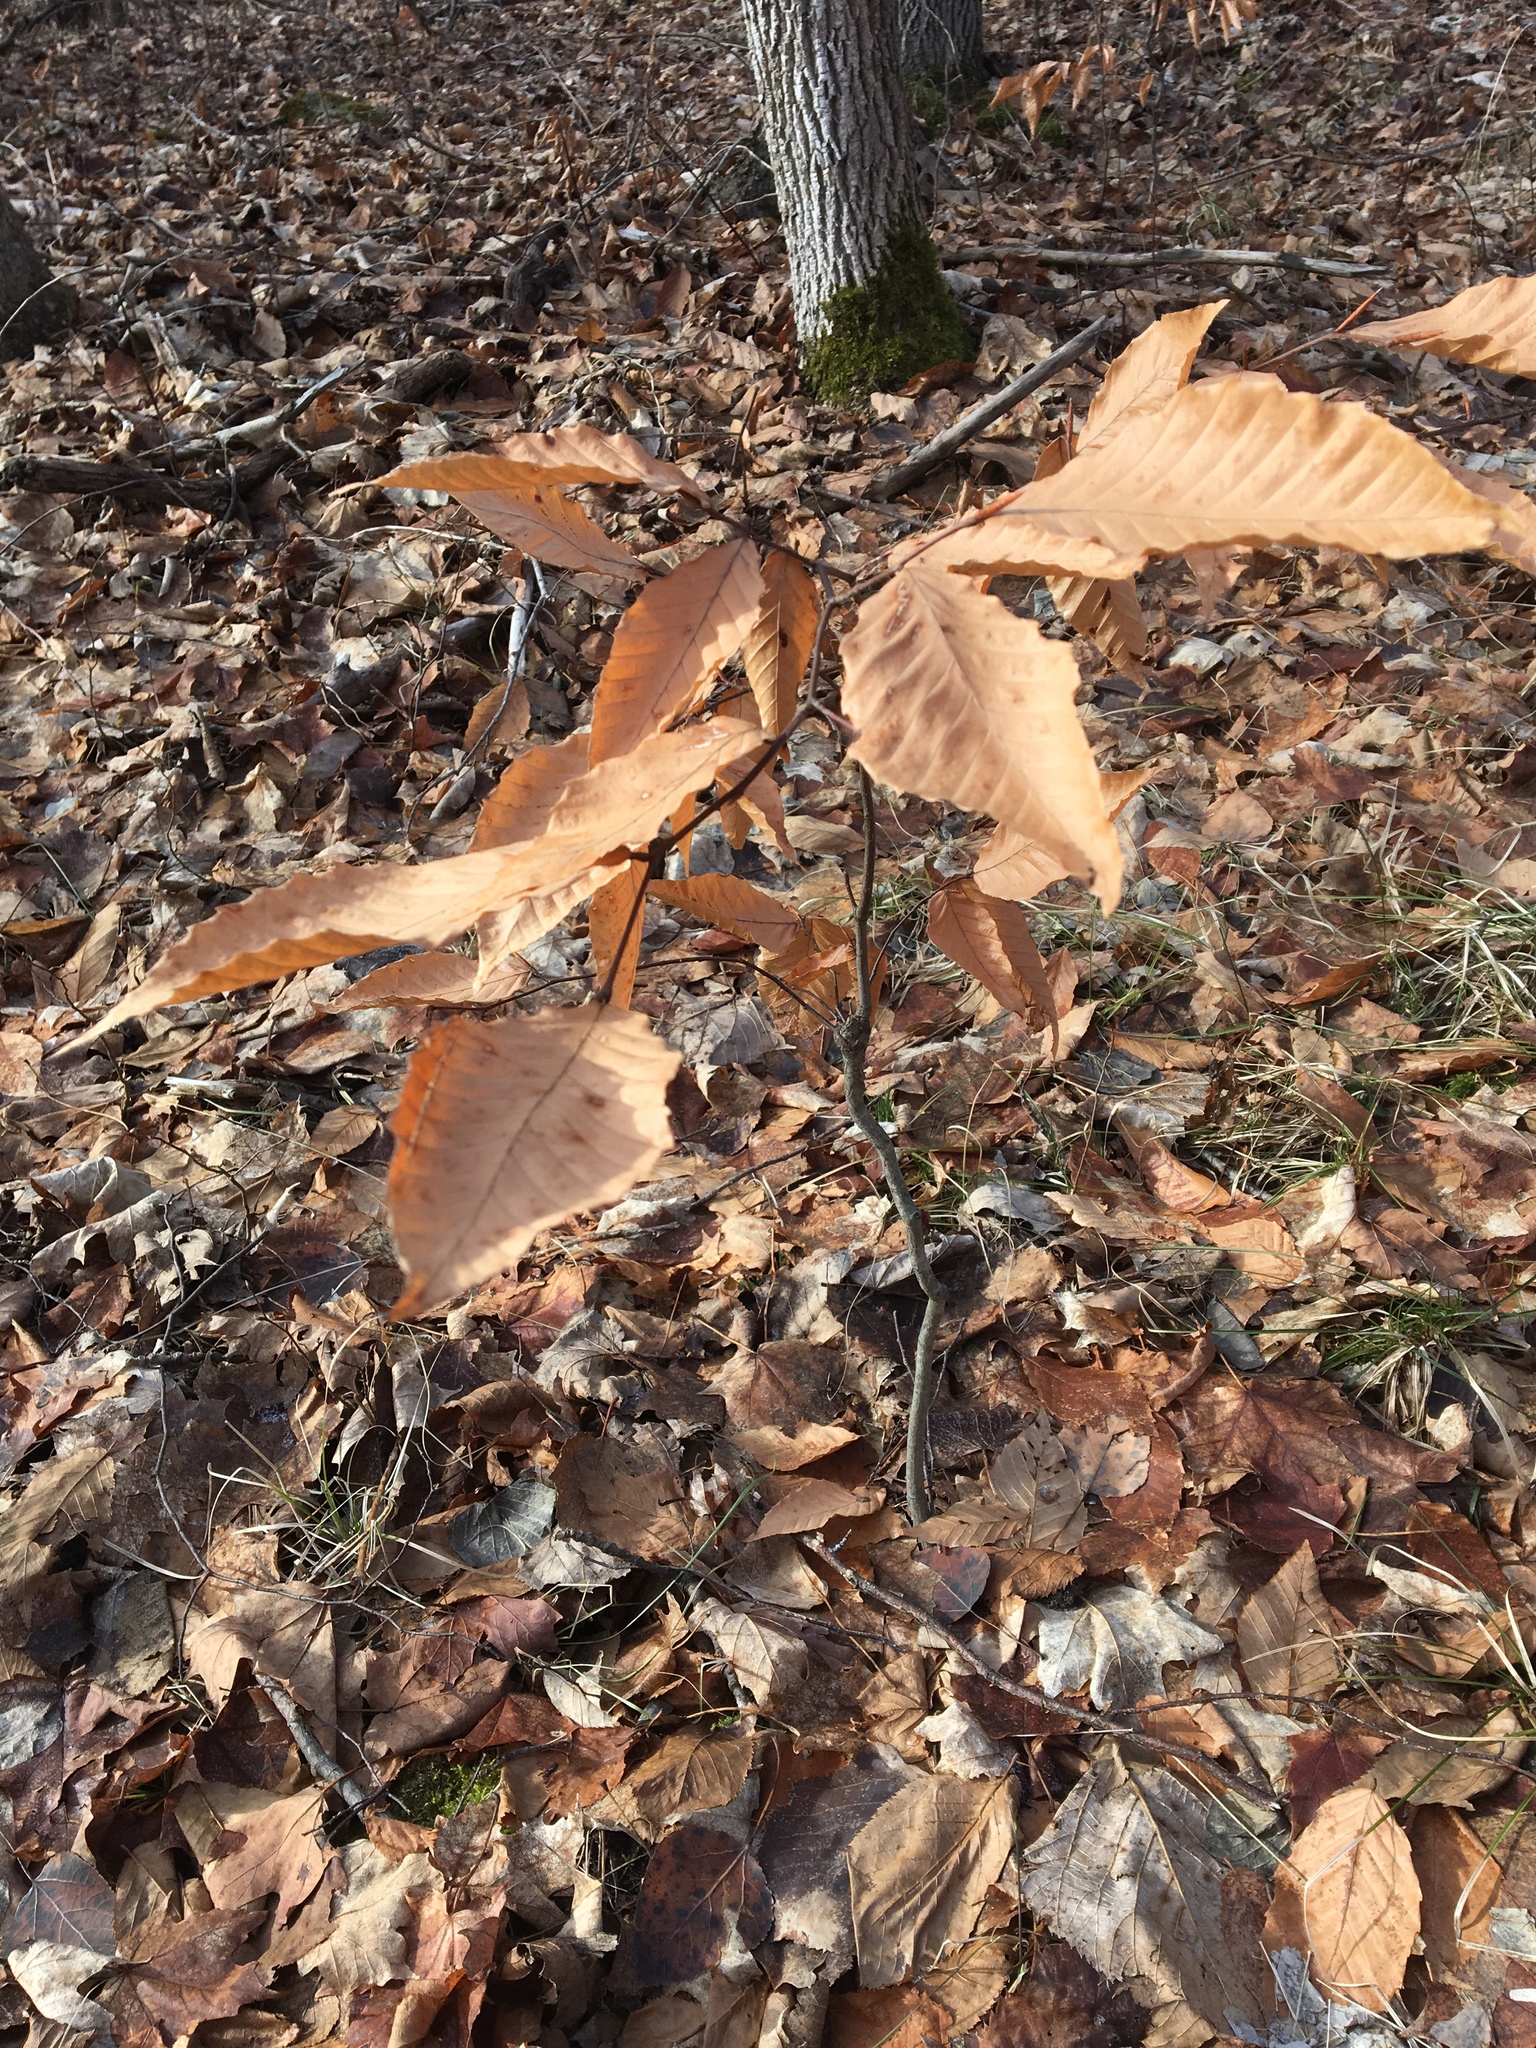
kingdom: Plantae
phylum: Tracheophyta
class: Magnoliopsida
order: Fagales
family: Fagaceae
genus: Fagus
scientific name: Fagus grandifolia
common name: American beech
